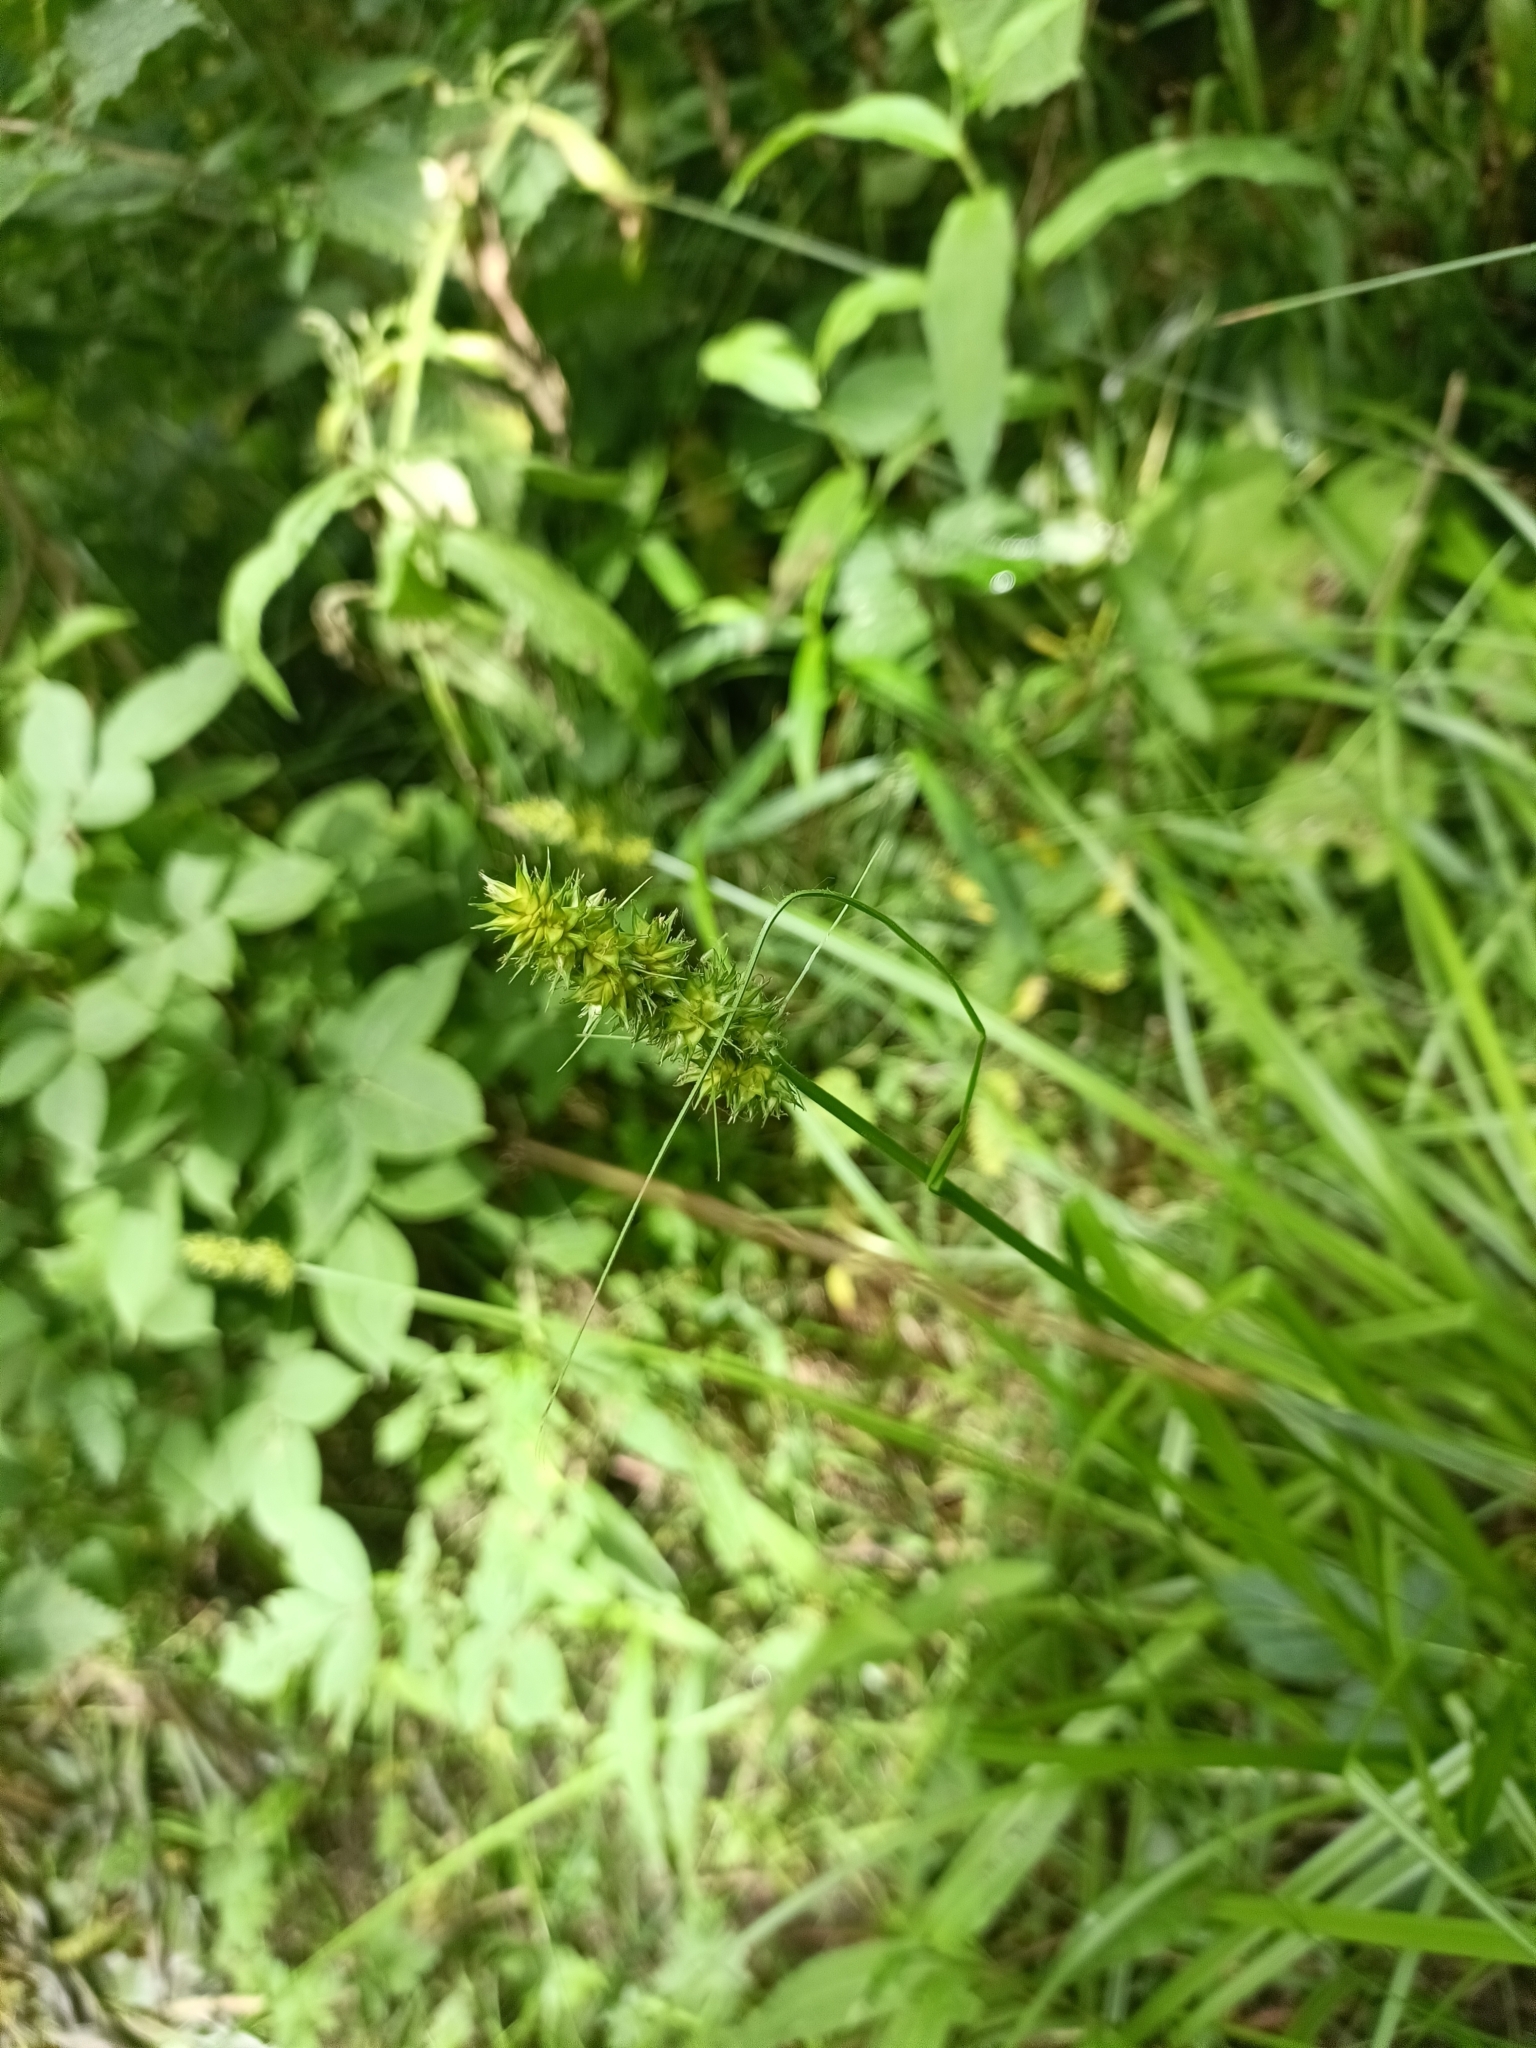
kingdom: Plantae
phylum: Tracheophyta
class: Liliopsida
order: Poales
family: Cyperaceae
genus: Carex
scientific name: Carex otrubae
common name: False fox-sedge
